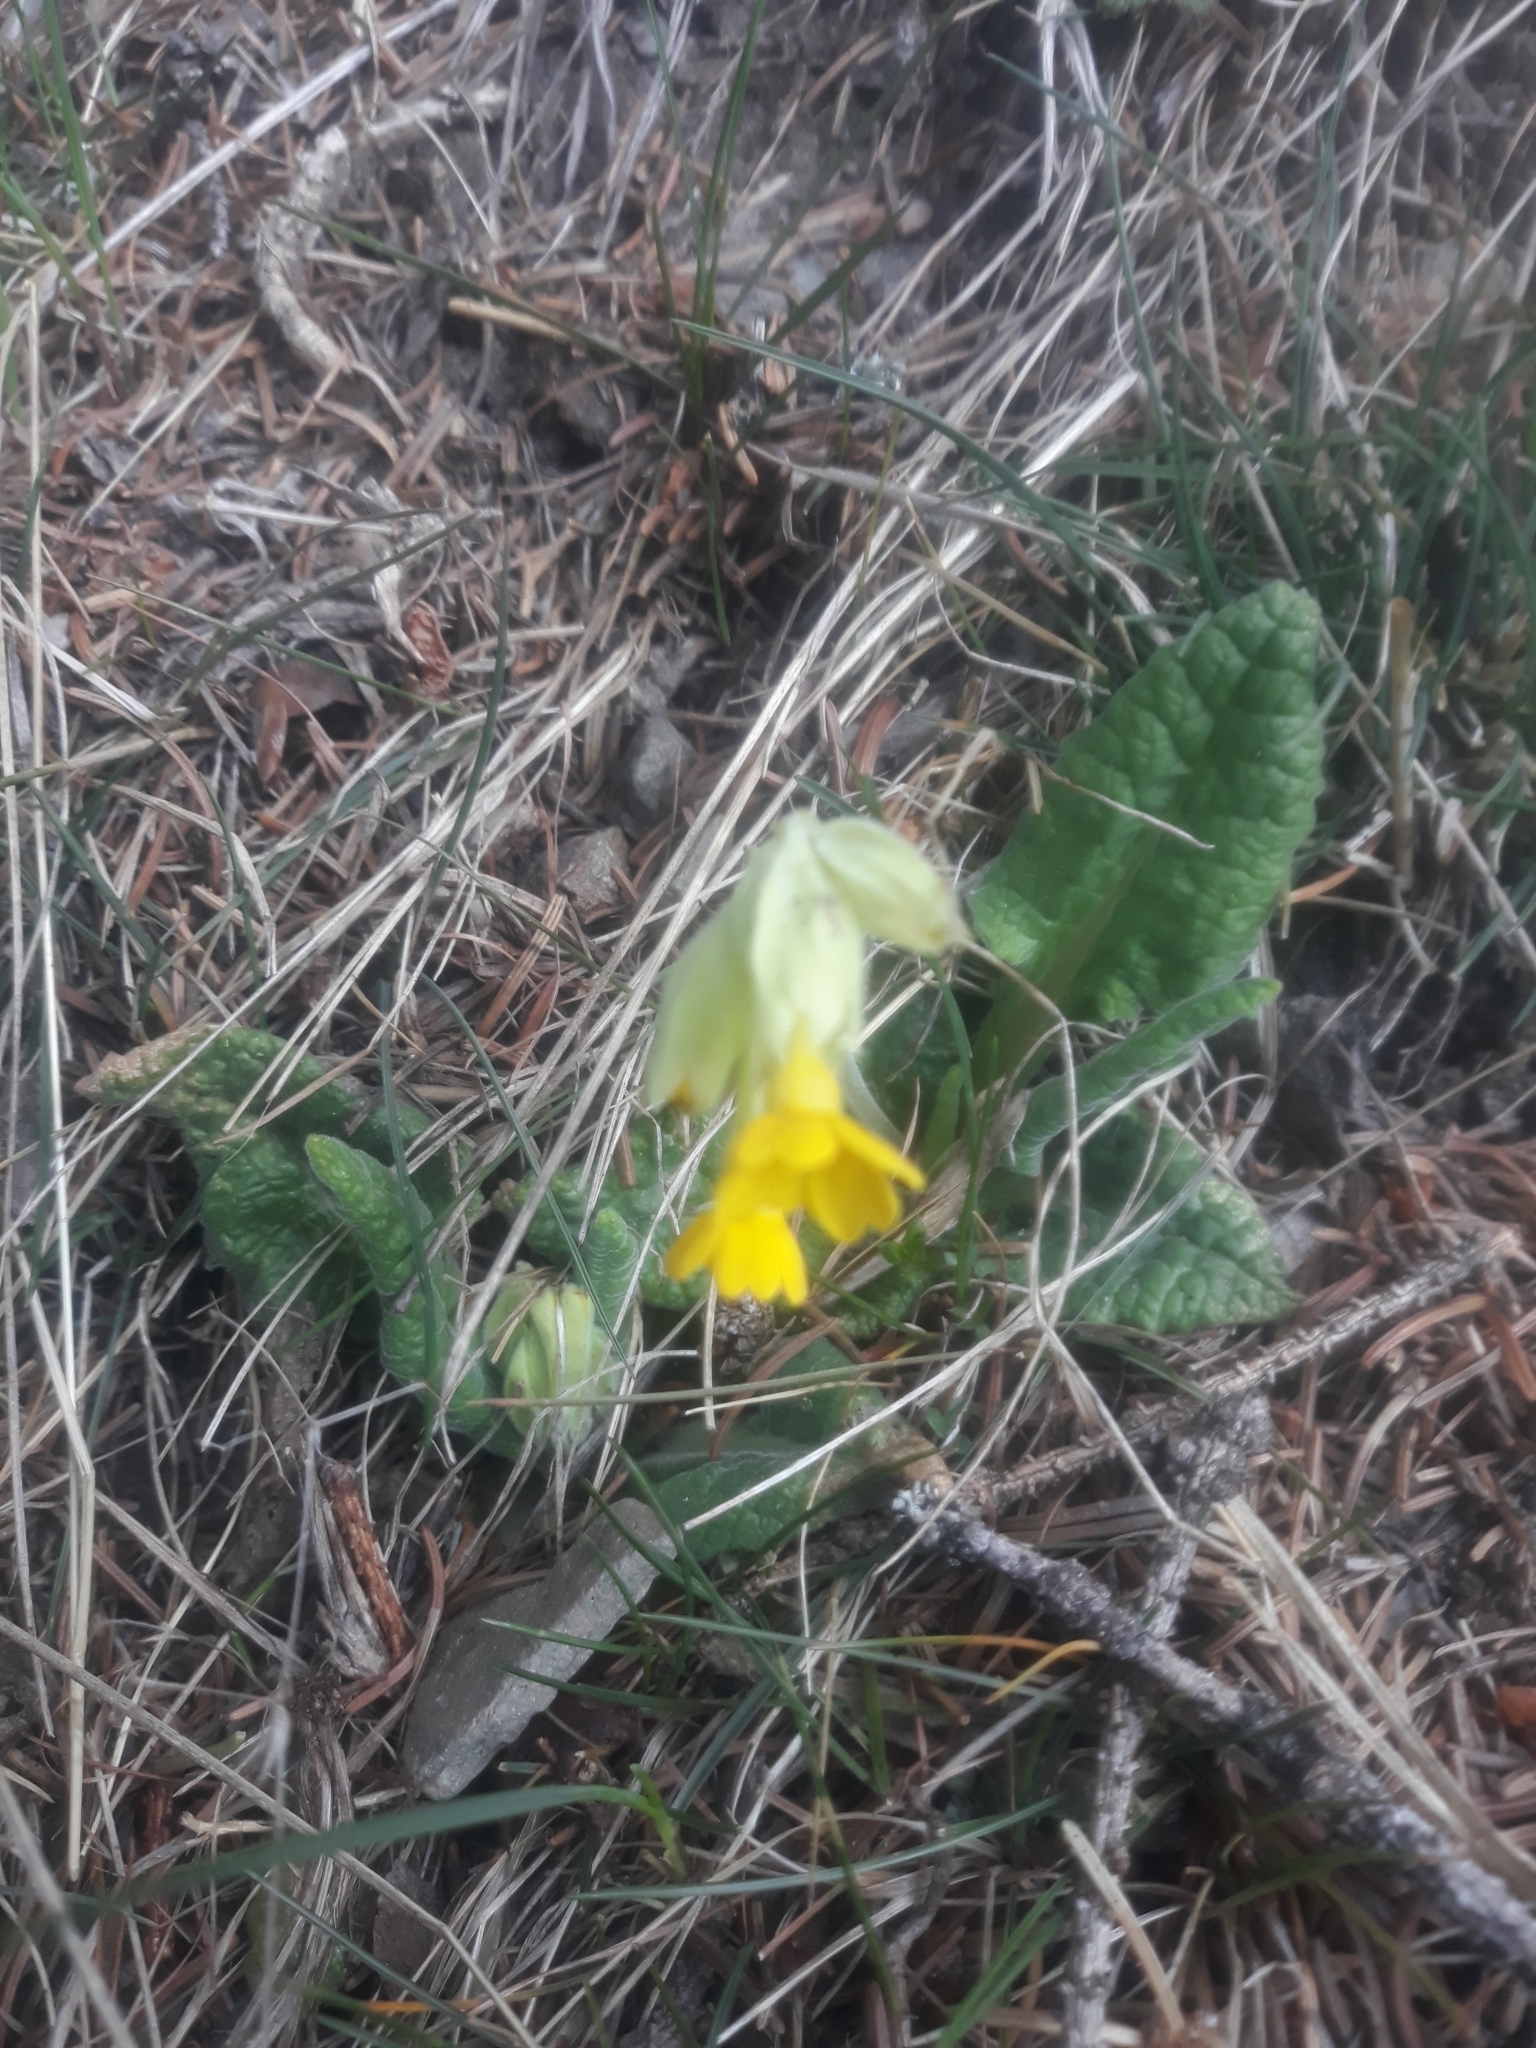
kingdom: Plantae
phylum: Tracheophyta
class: Magnoliopsida
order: Ericales
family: Primulaceae
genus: Primula
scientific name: Primula veris
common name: Cowslip
